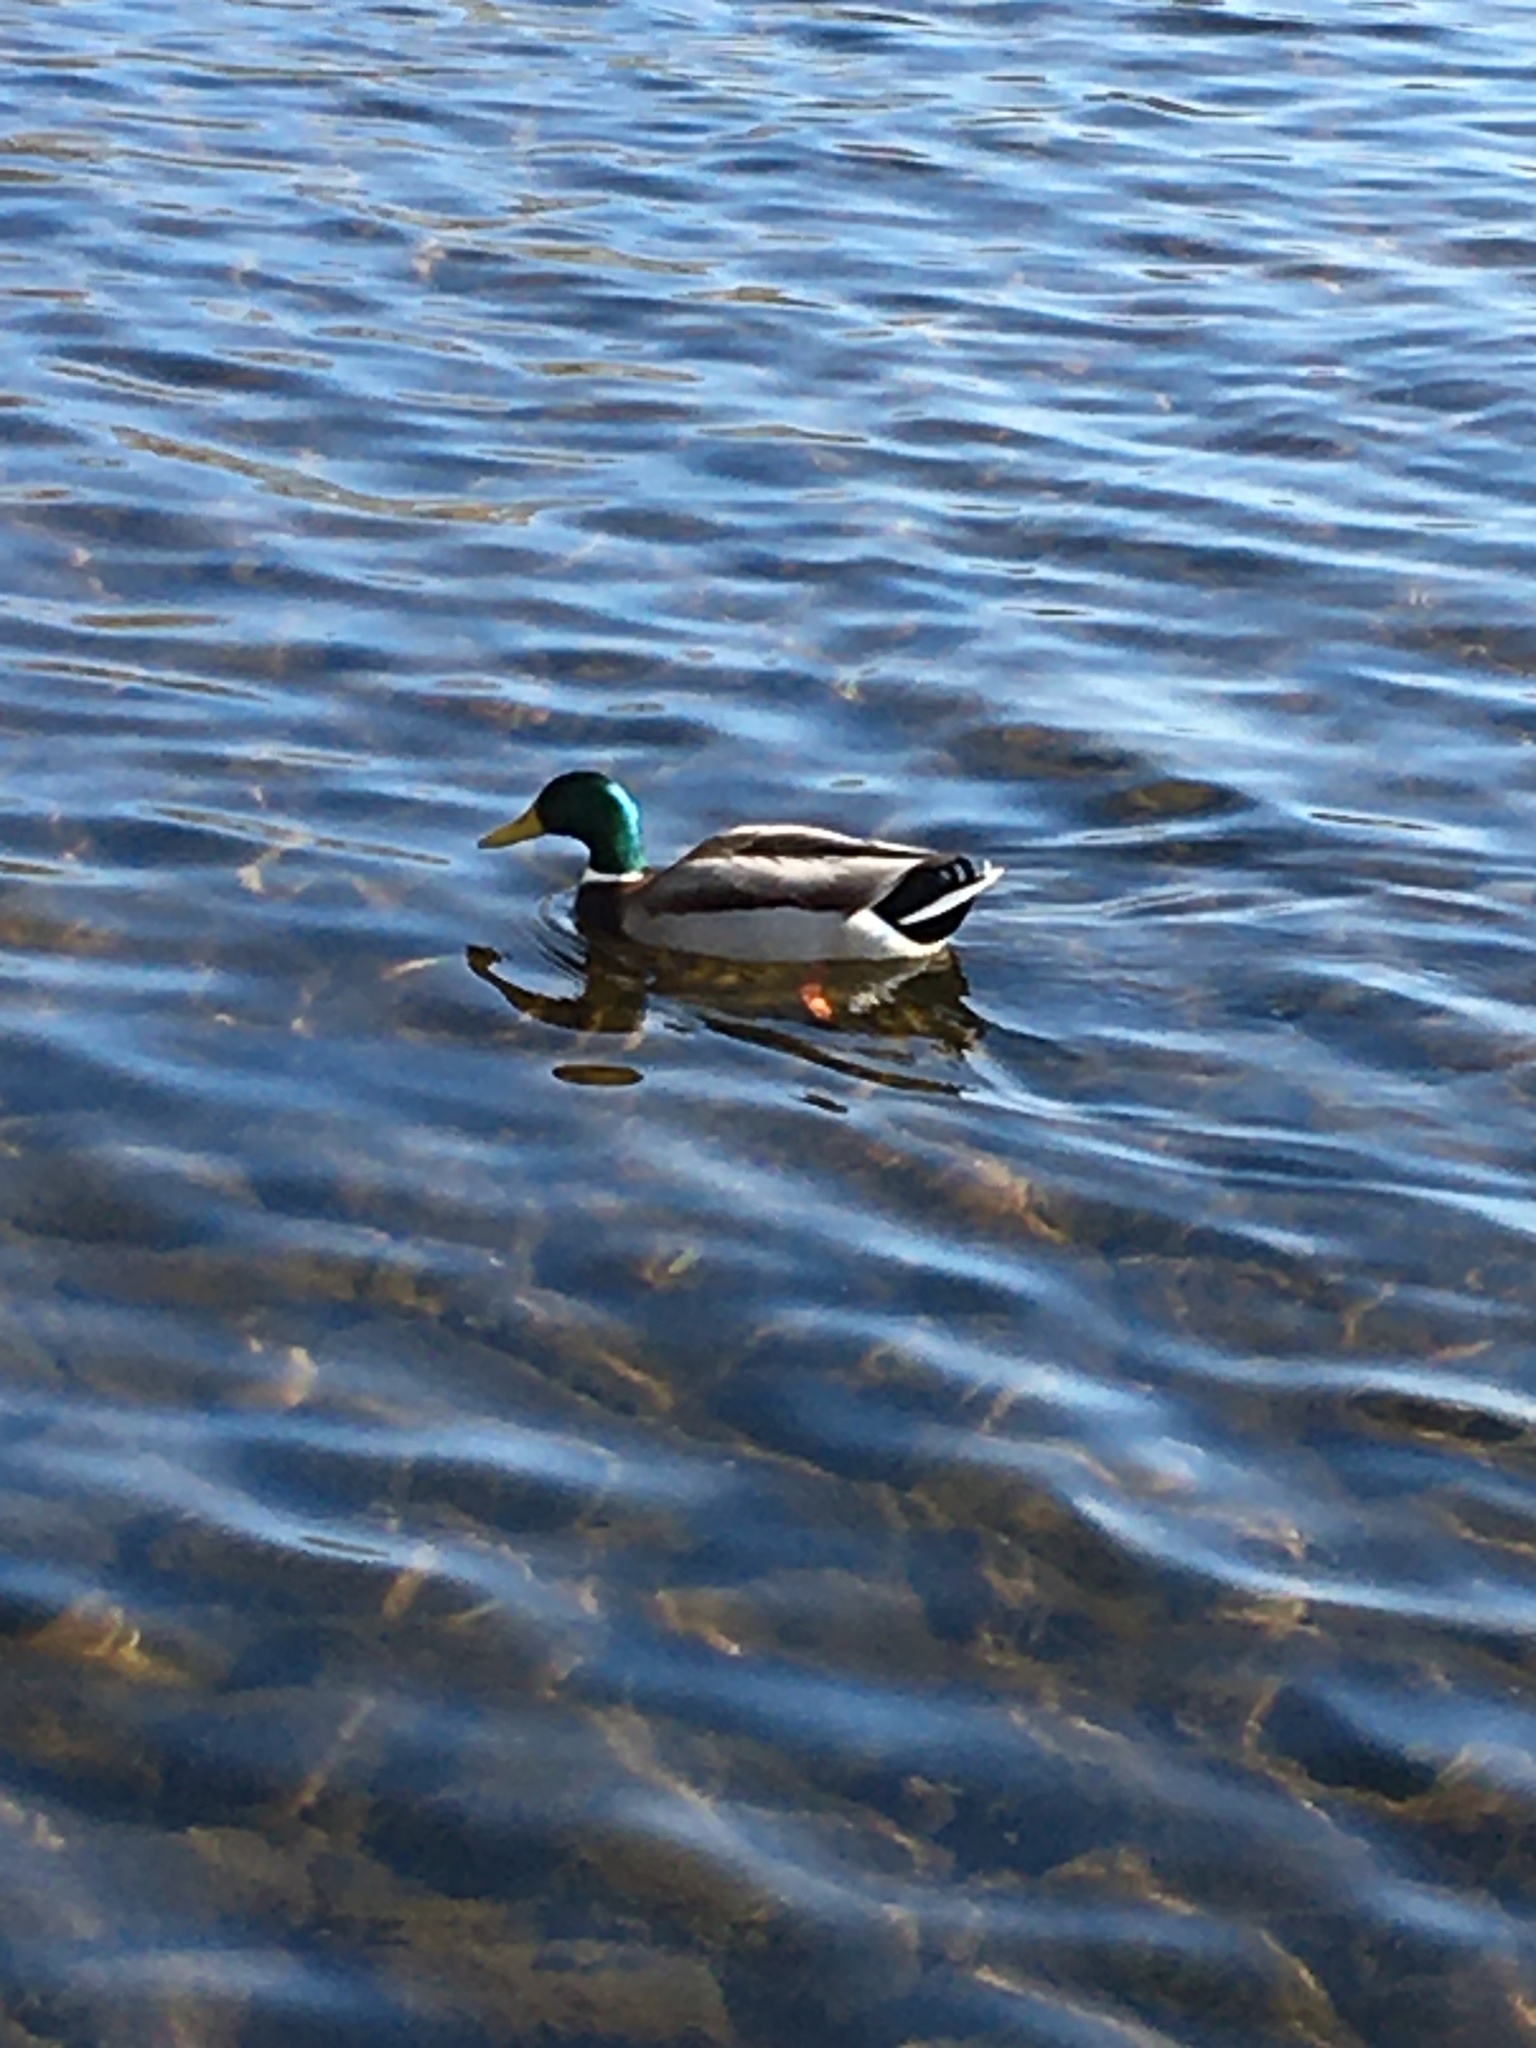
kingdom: Animalia
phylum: Chordata
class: Aves
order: Anseriformes
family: Anatidae
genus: Anas
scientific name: Anas platyrhynchos
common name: Mallard
